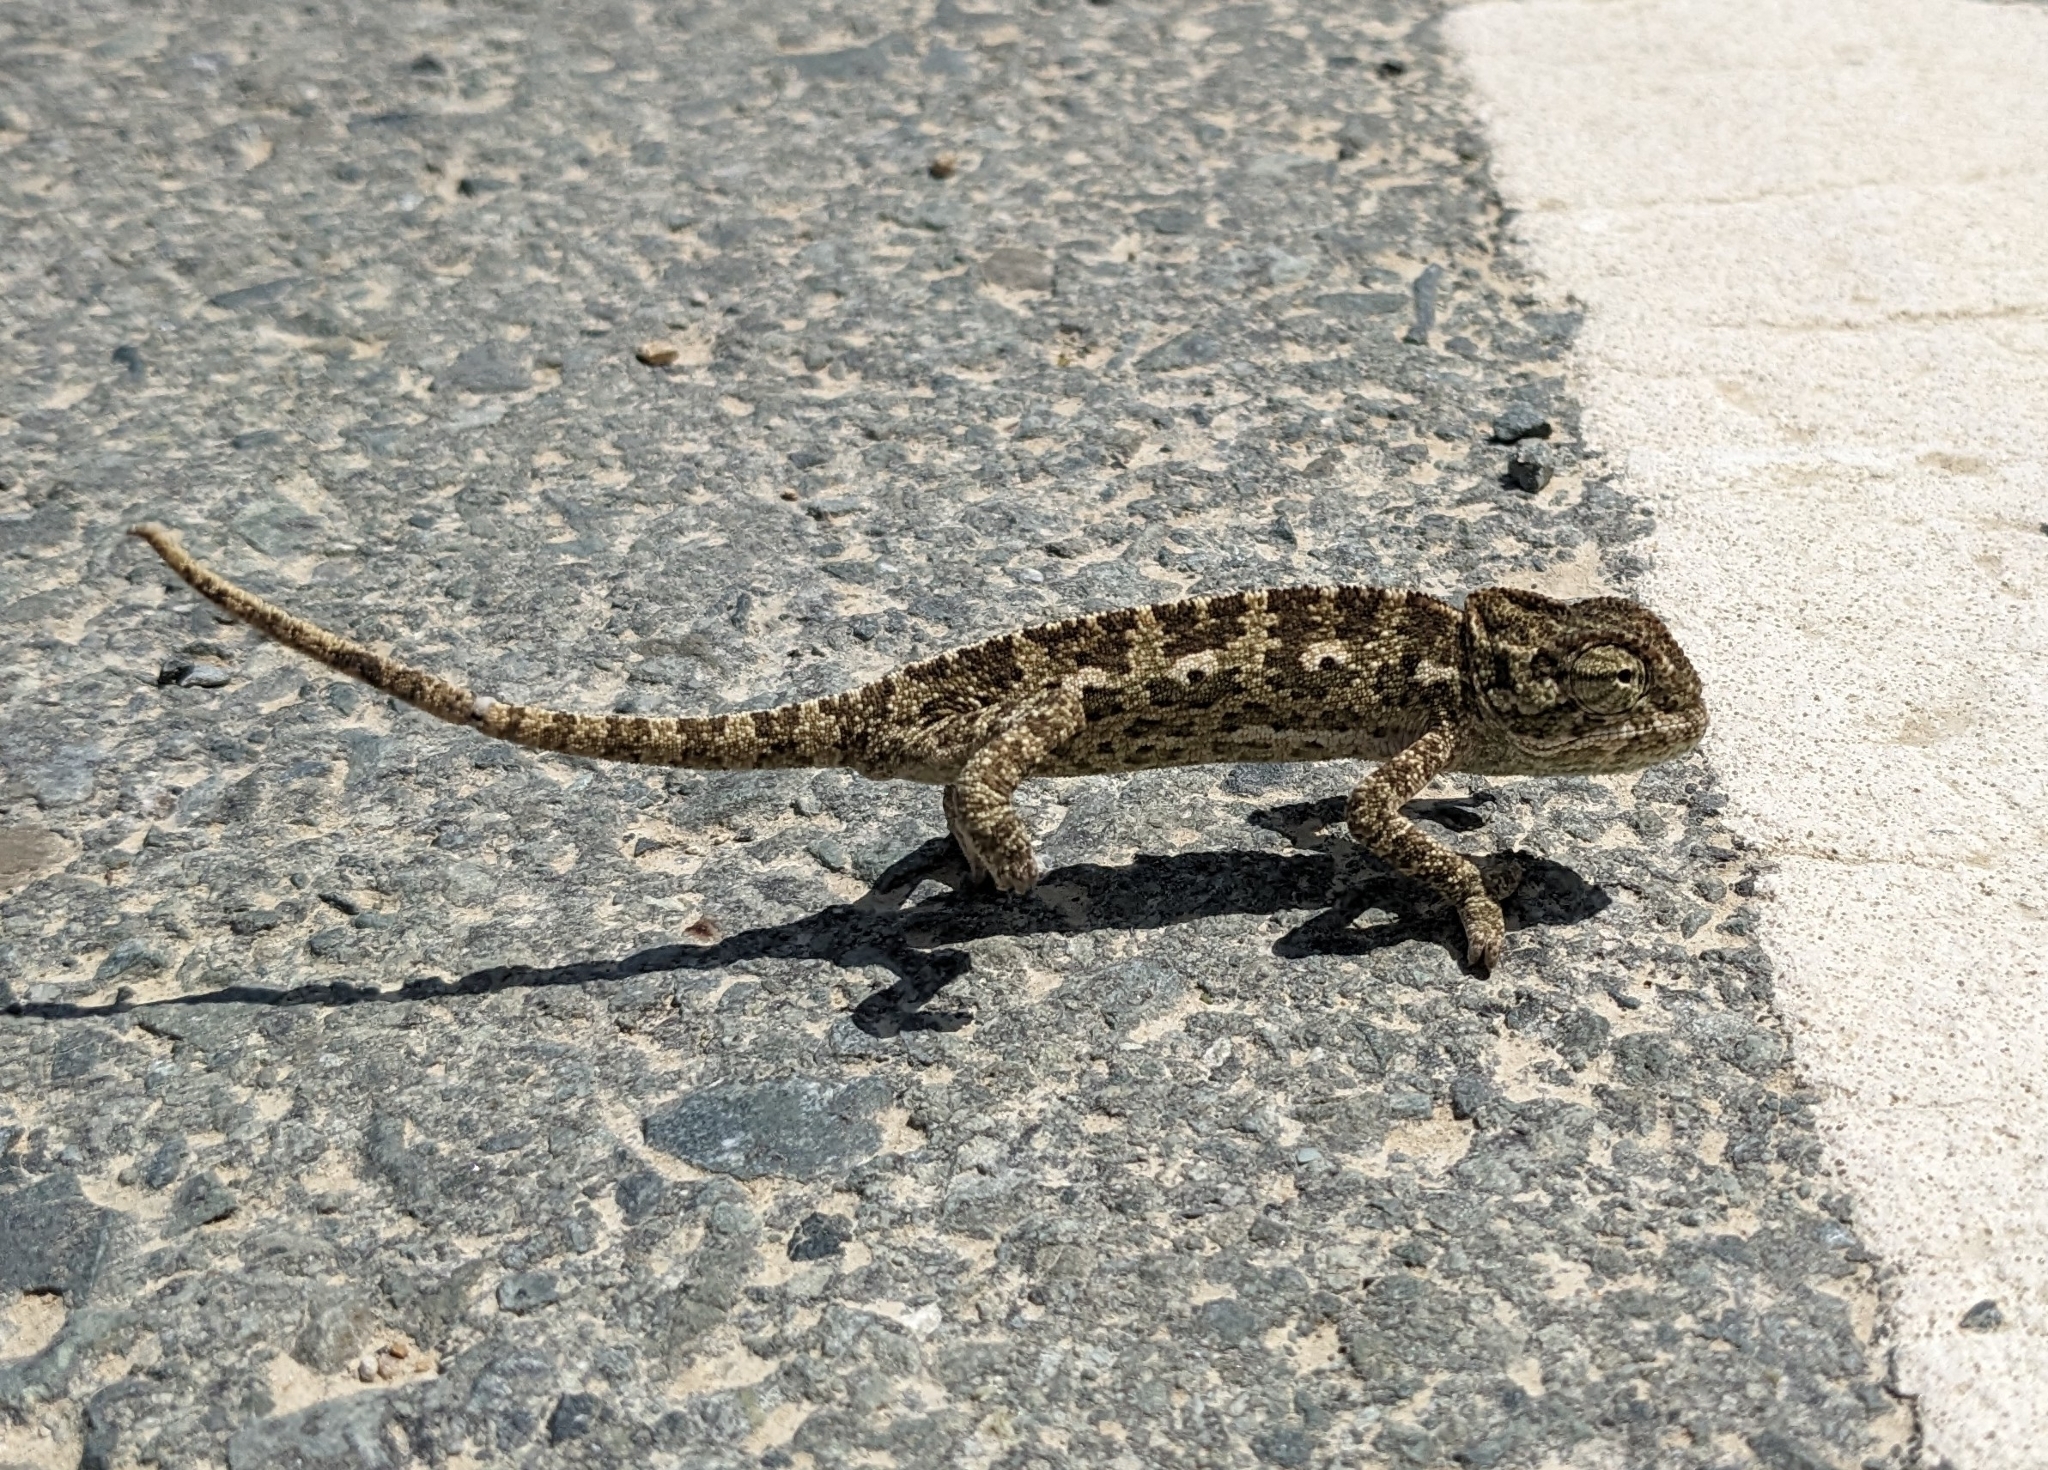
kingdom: Animalia
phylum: Chordata
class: Squamata
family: Chamaeleonidae
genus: Chamaeleo
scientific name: Chamaeleo chamaeleon
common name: Mediterranean chameleon
